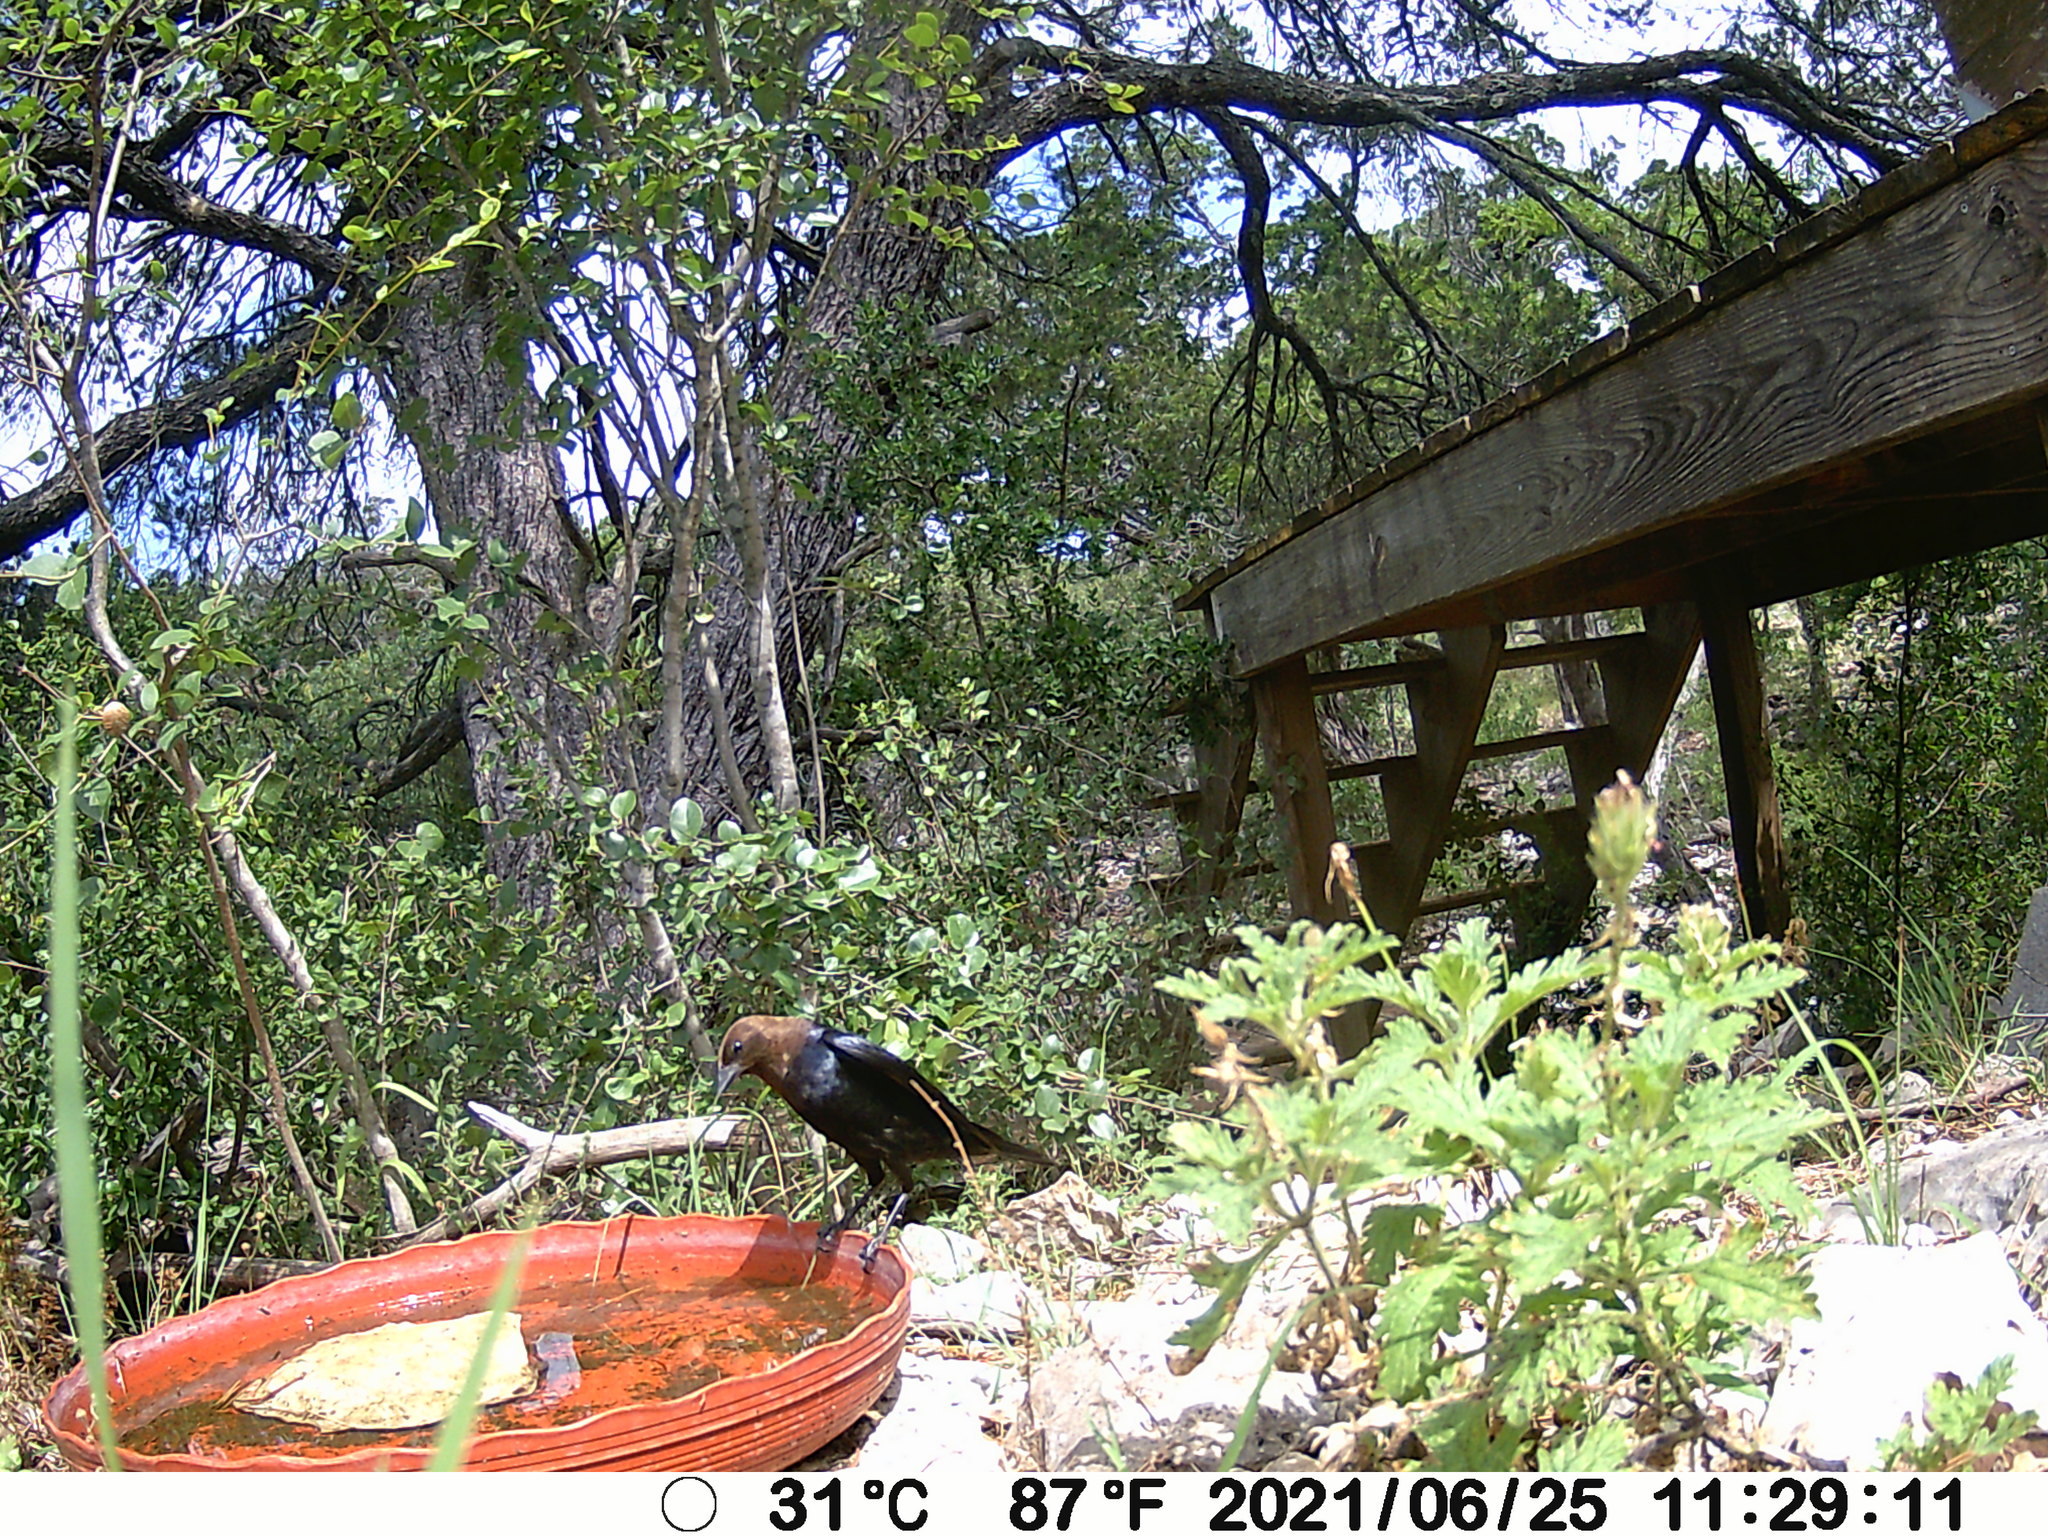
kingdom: Animalia
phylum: Chordata
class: Aves
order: Passeriformes
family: Icteridae
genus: Molothrus
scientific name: Molothrus ater
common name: Brown-headed cowbird
